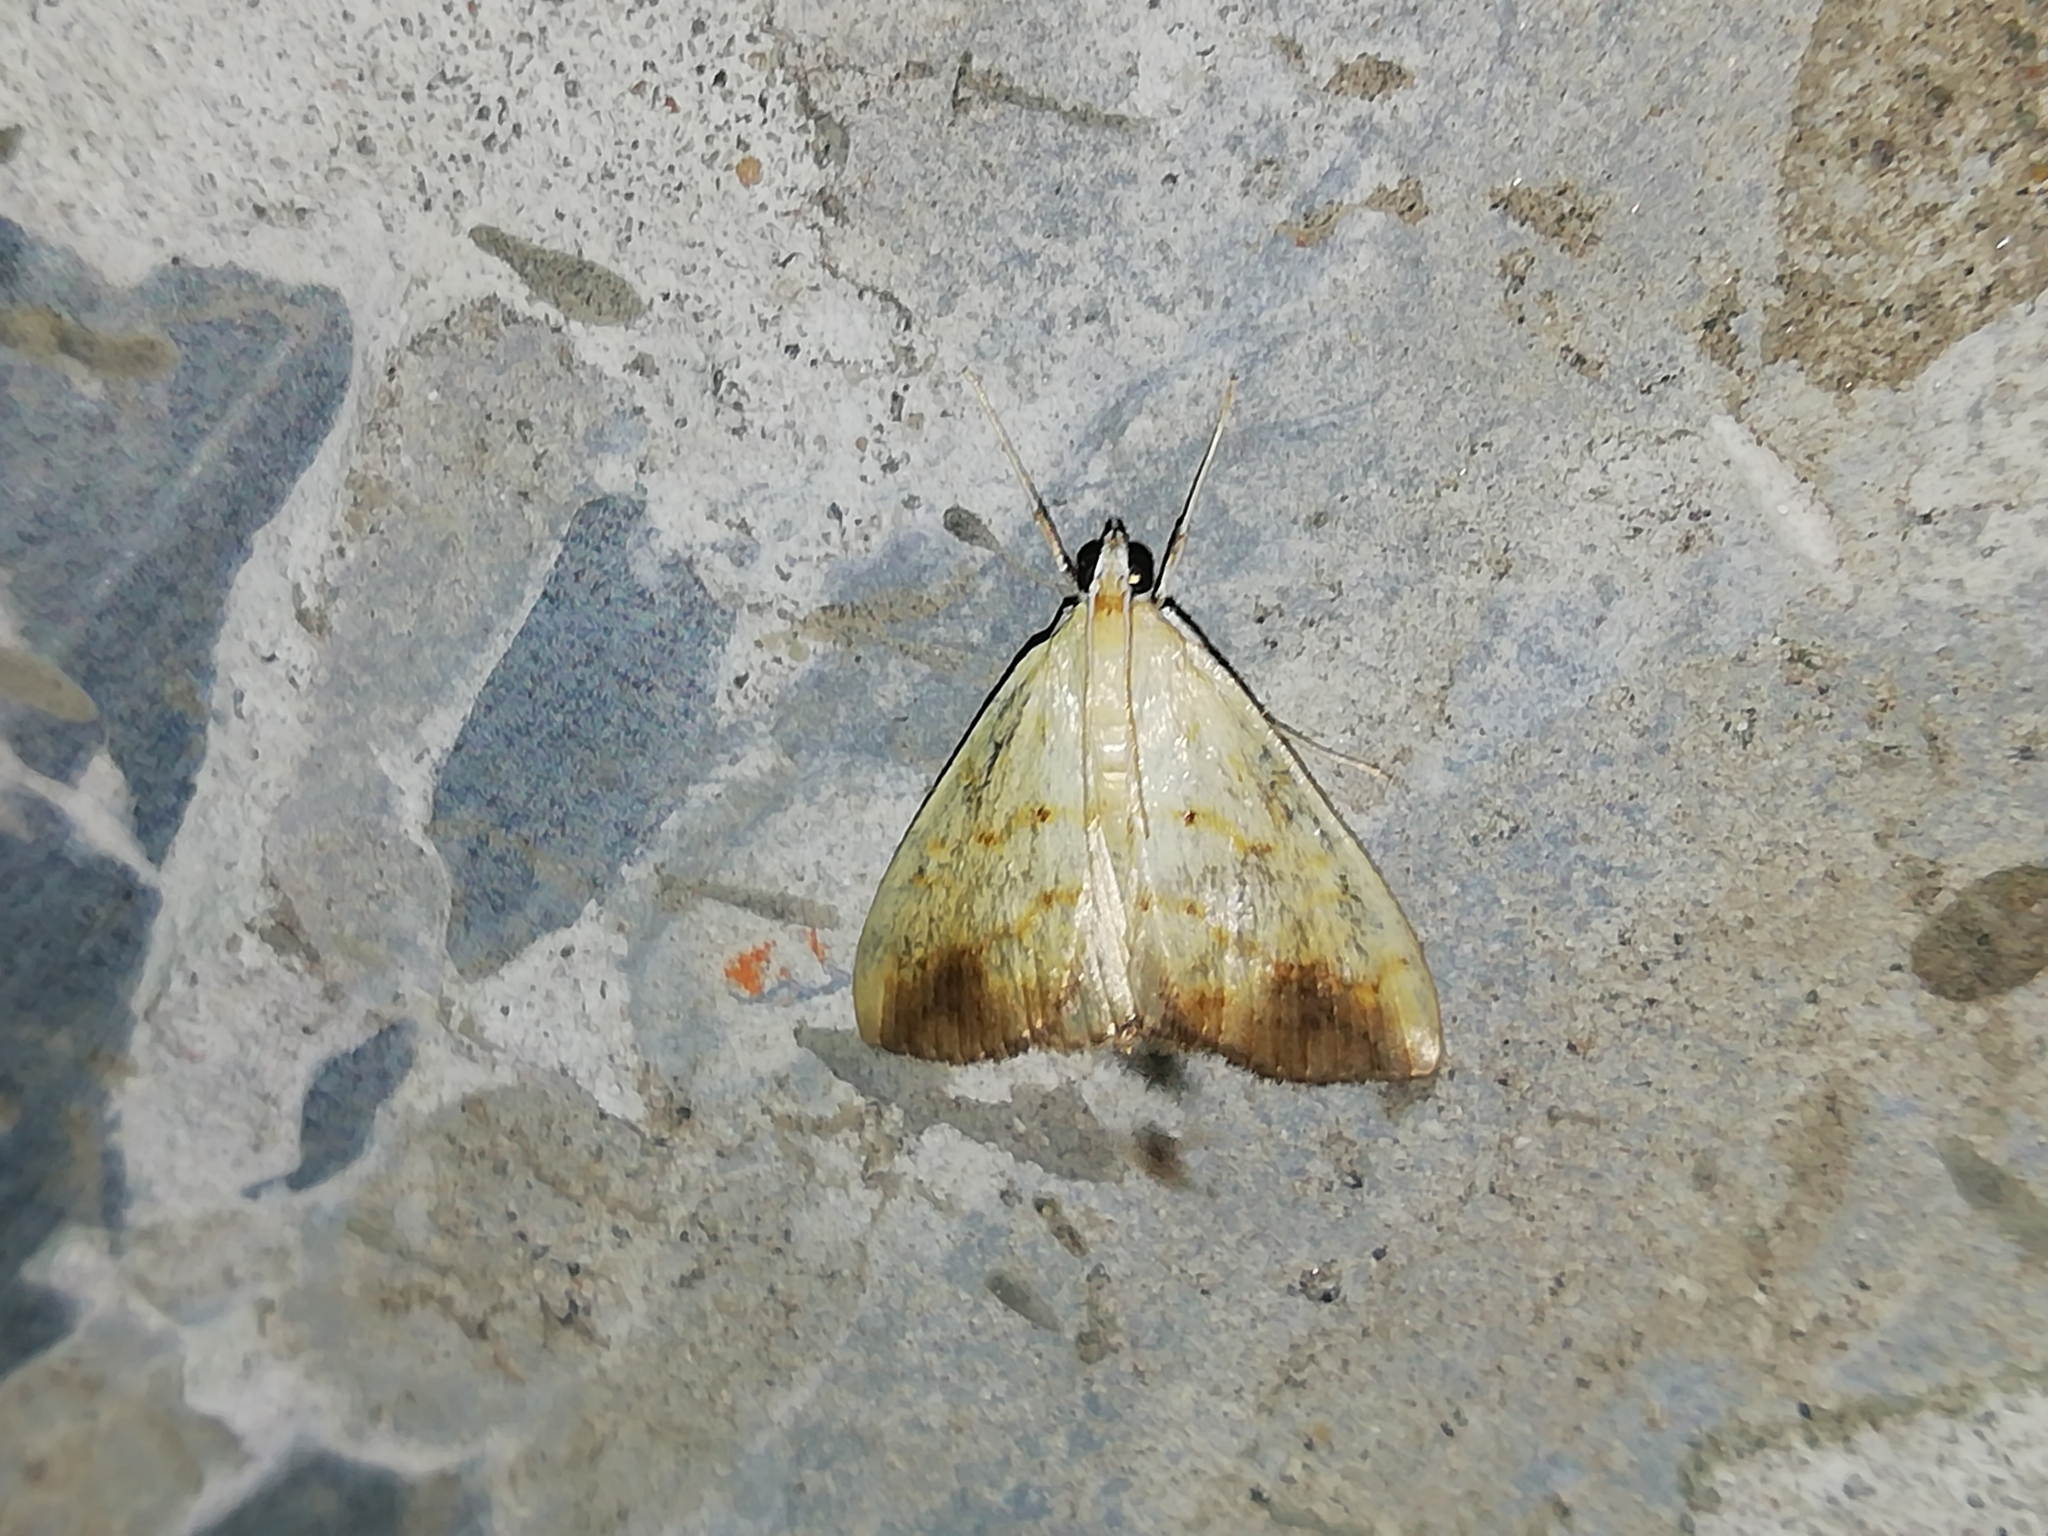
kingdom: Animalia
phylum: Arthropoda
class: Insecta
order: Lepidoptera
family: Crambidae
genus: Evergestis
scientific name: Evergestis extimalis
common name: Marbled yellow pearl
